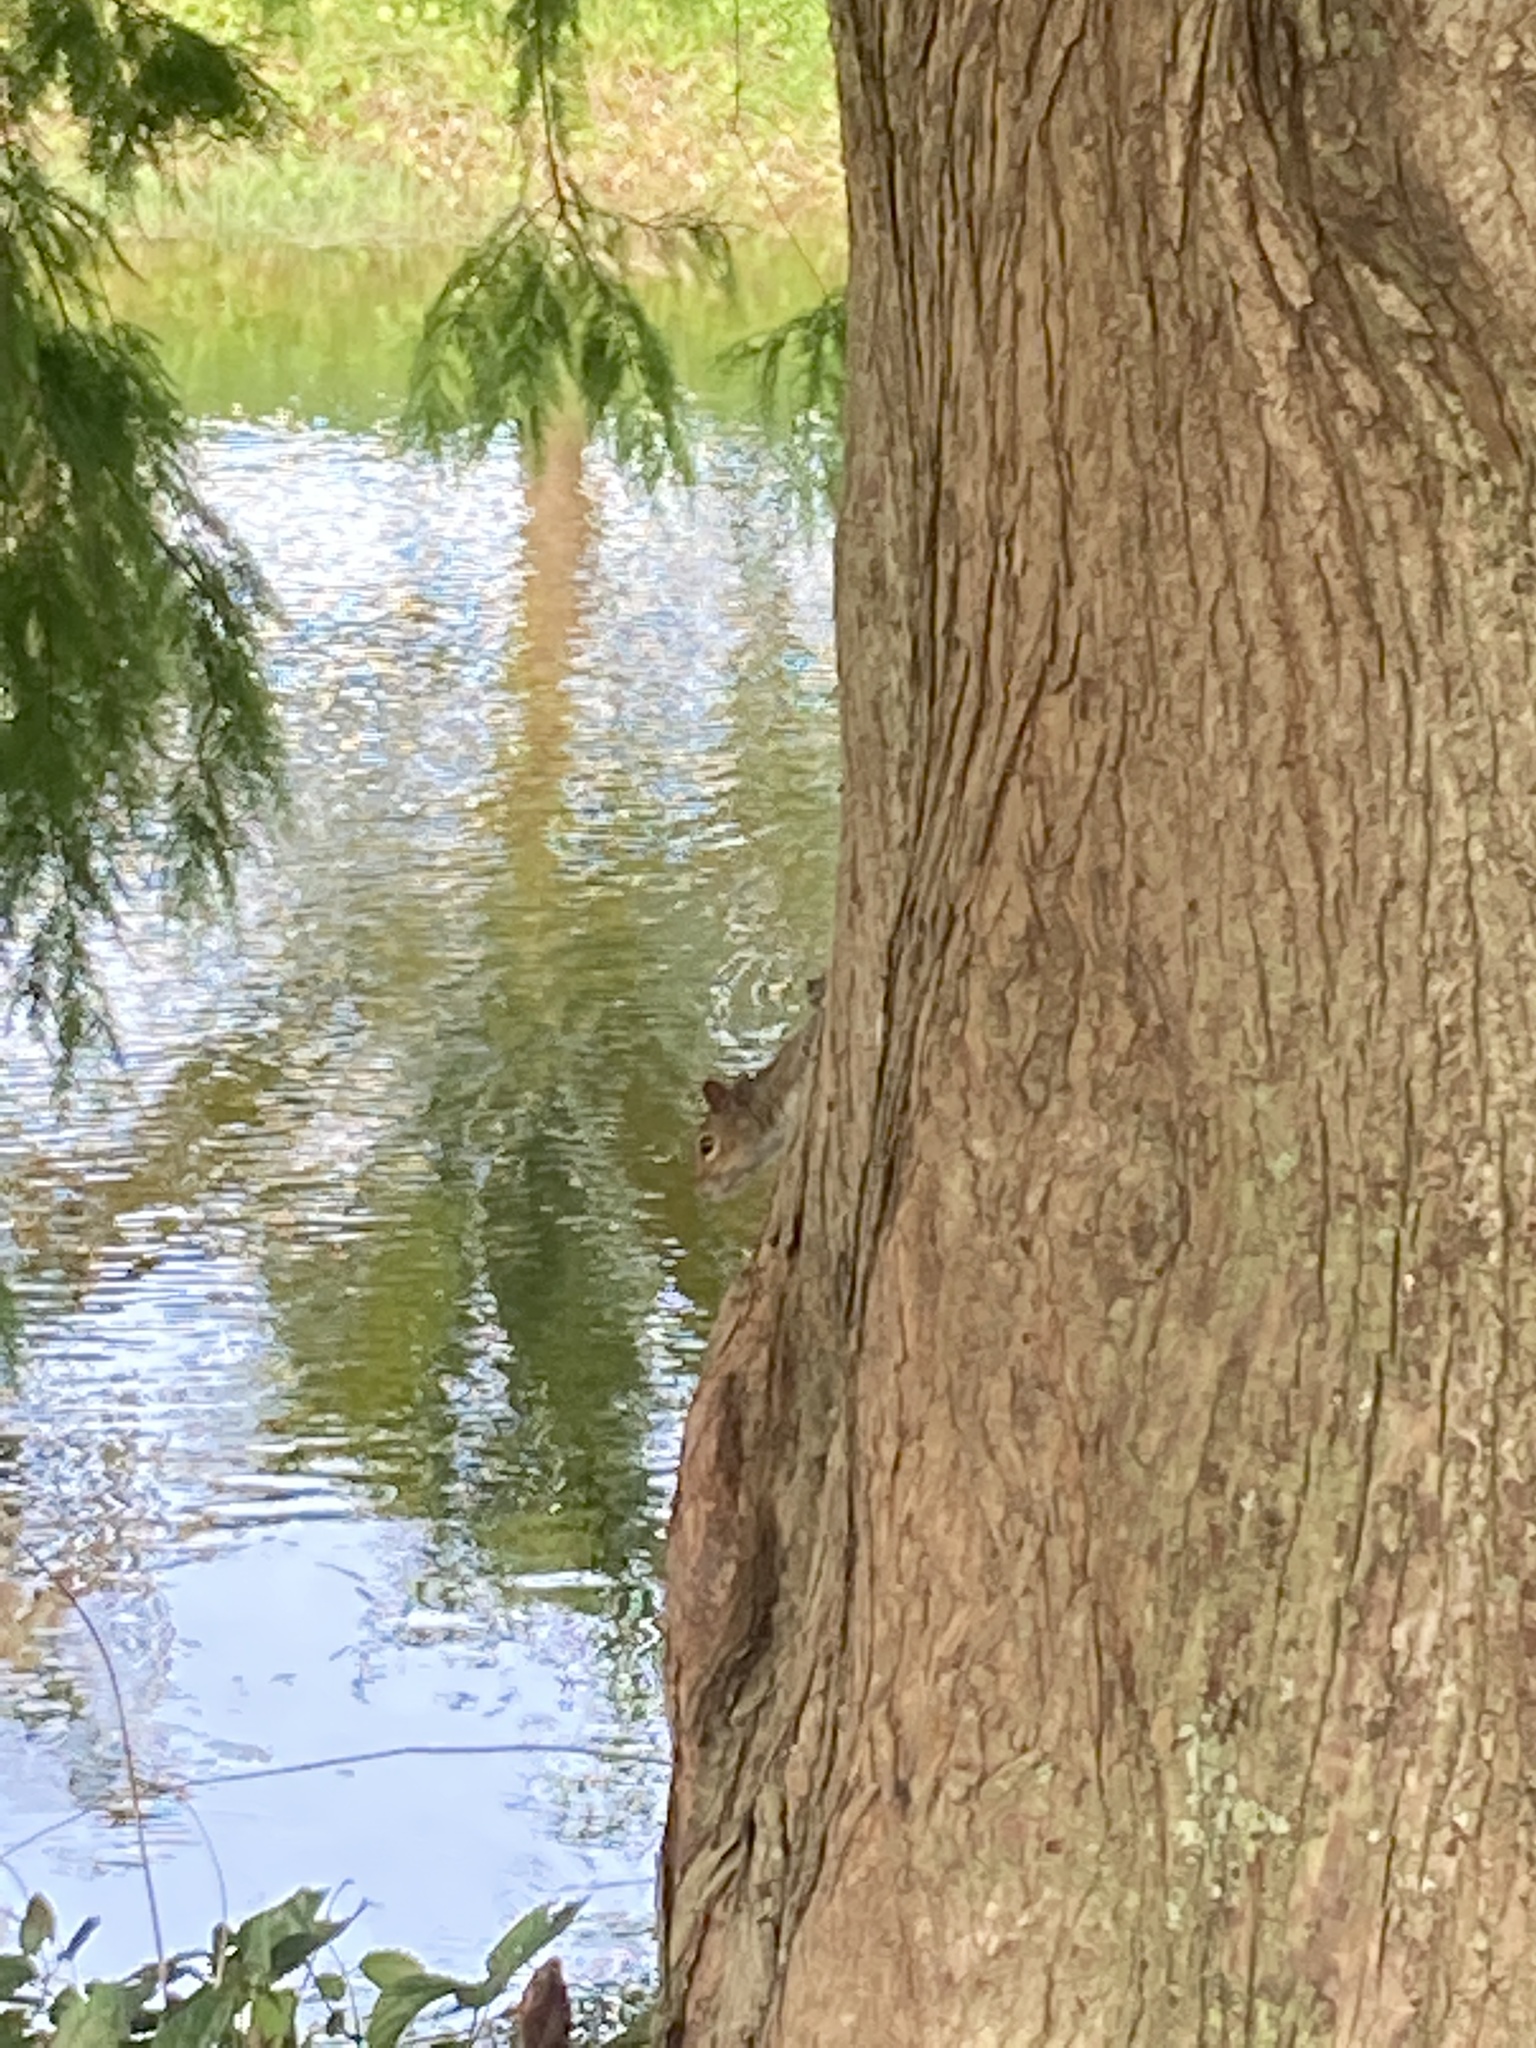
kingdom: Animalia
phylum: Chordata
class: Mammalia
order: Rodentia
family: Sciuridae
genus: Sciurus
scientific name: Sciurus carolinensis
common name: Eastern gray squirrel
